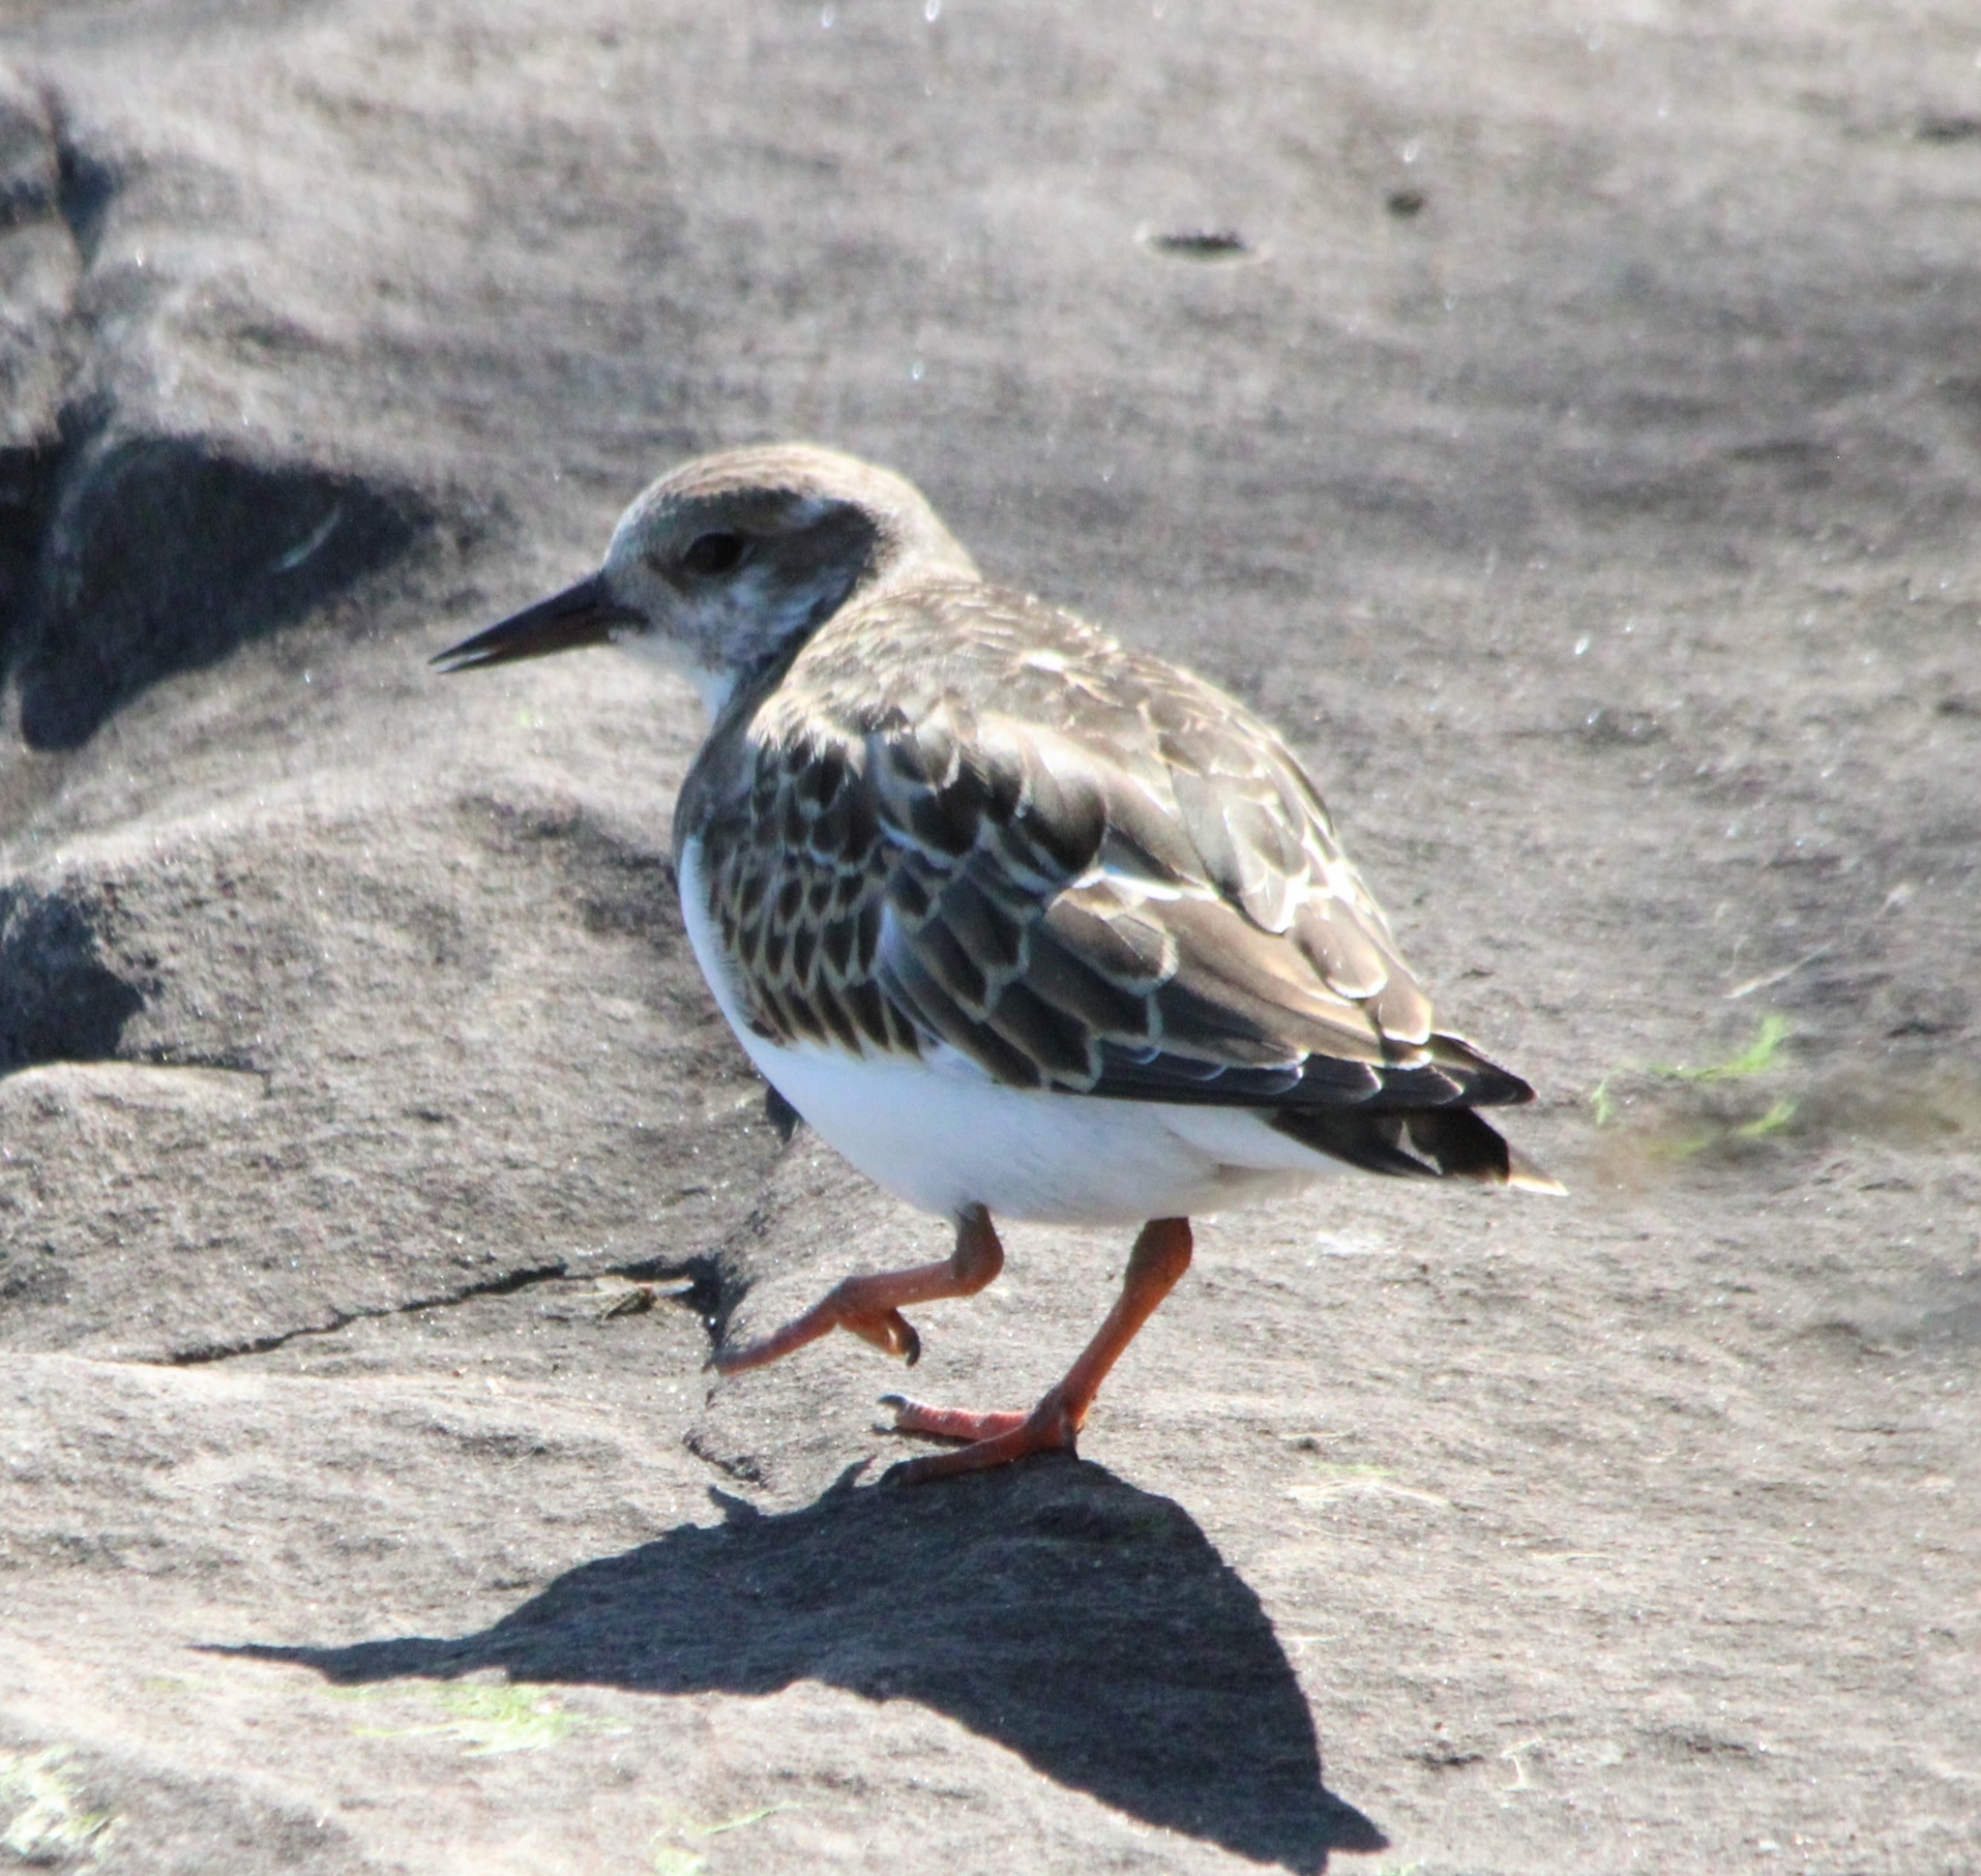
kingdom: Animalia
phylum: Chordata
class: Aves
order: Charadriiformes
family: Scolopacidae
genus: Arenaria
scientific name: Arenaria interpres
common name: Ruddy turnstone
